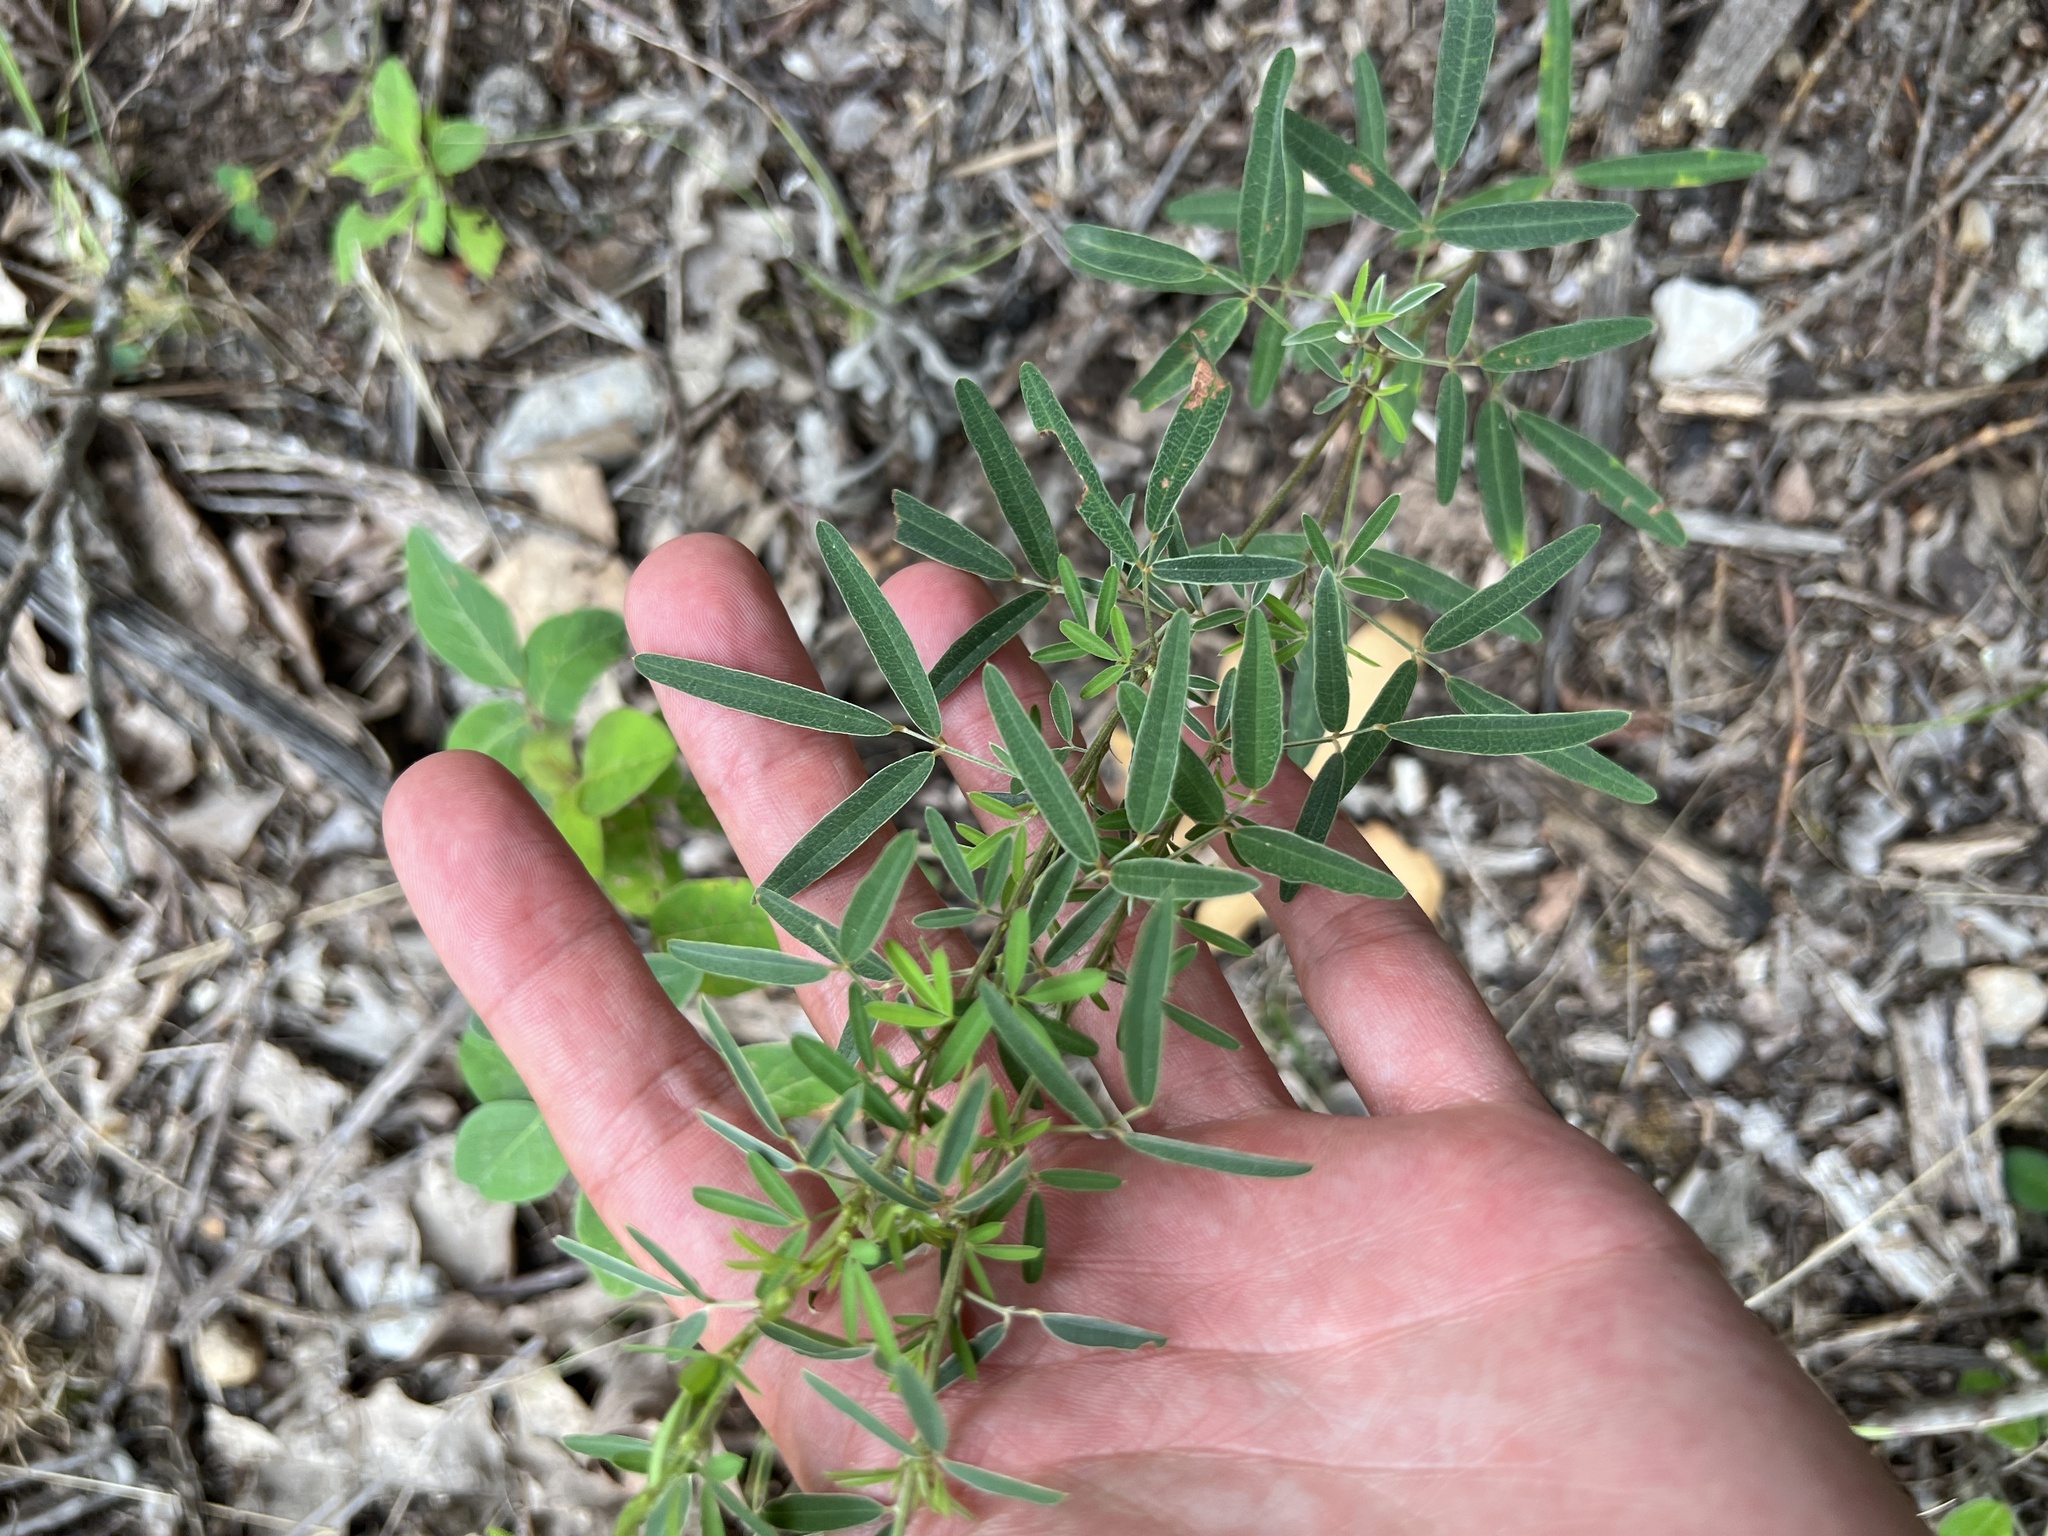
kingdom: Plantae
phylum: Tracheophyta
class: Magnoliopsida
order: Fabales
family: Fabaceae
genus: Lespedeza
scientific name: Lespedeza virginica
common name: Slender bush-clover
